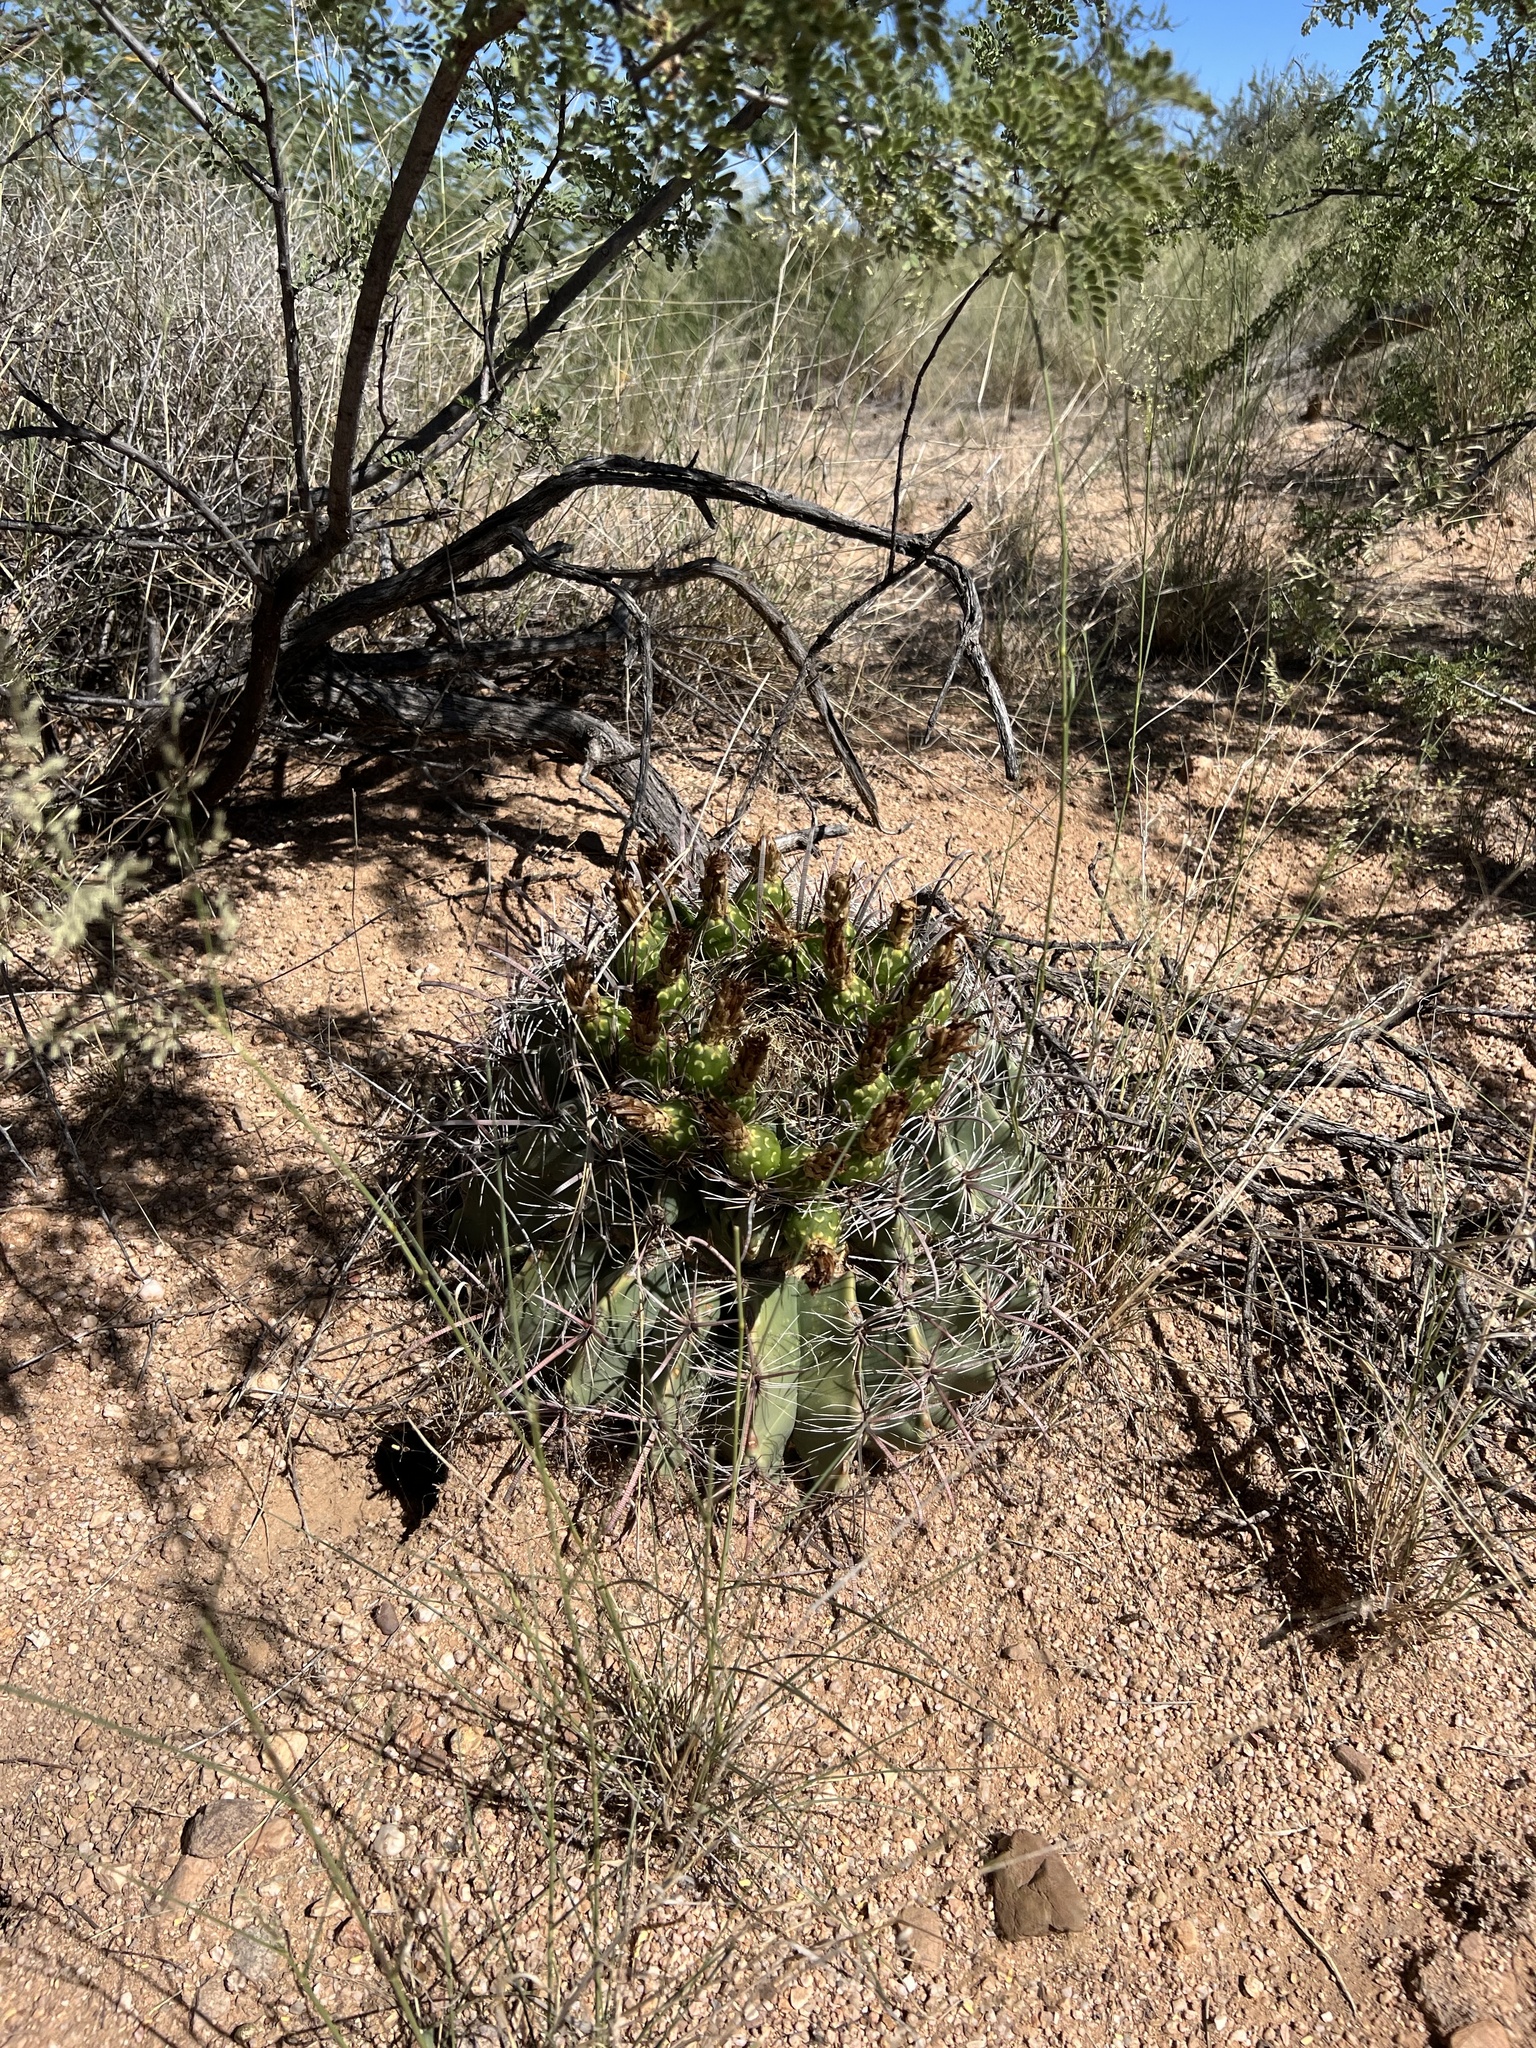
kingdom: Plantae
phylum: Tracheophyta
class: Magnoliopsida
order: Caryophyllales
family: Cactaceae
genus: Ferocactus
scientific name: Ferocactus wislizeni
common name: Candy barrel cactus
